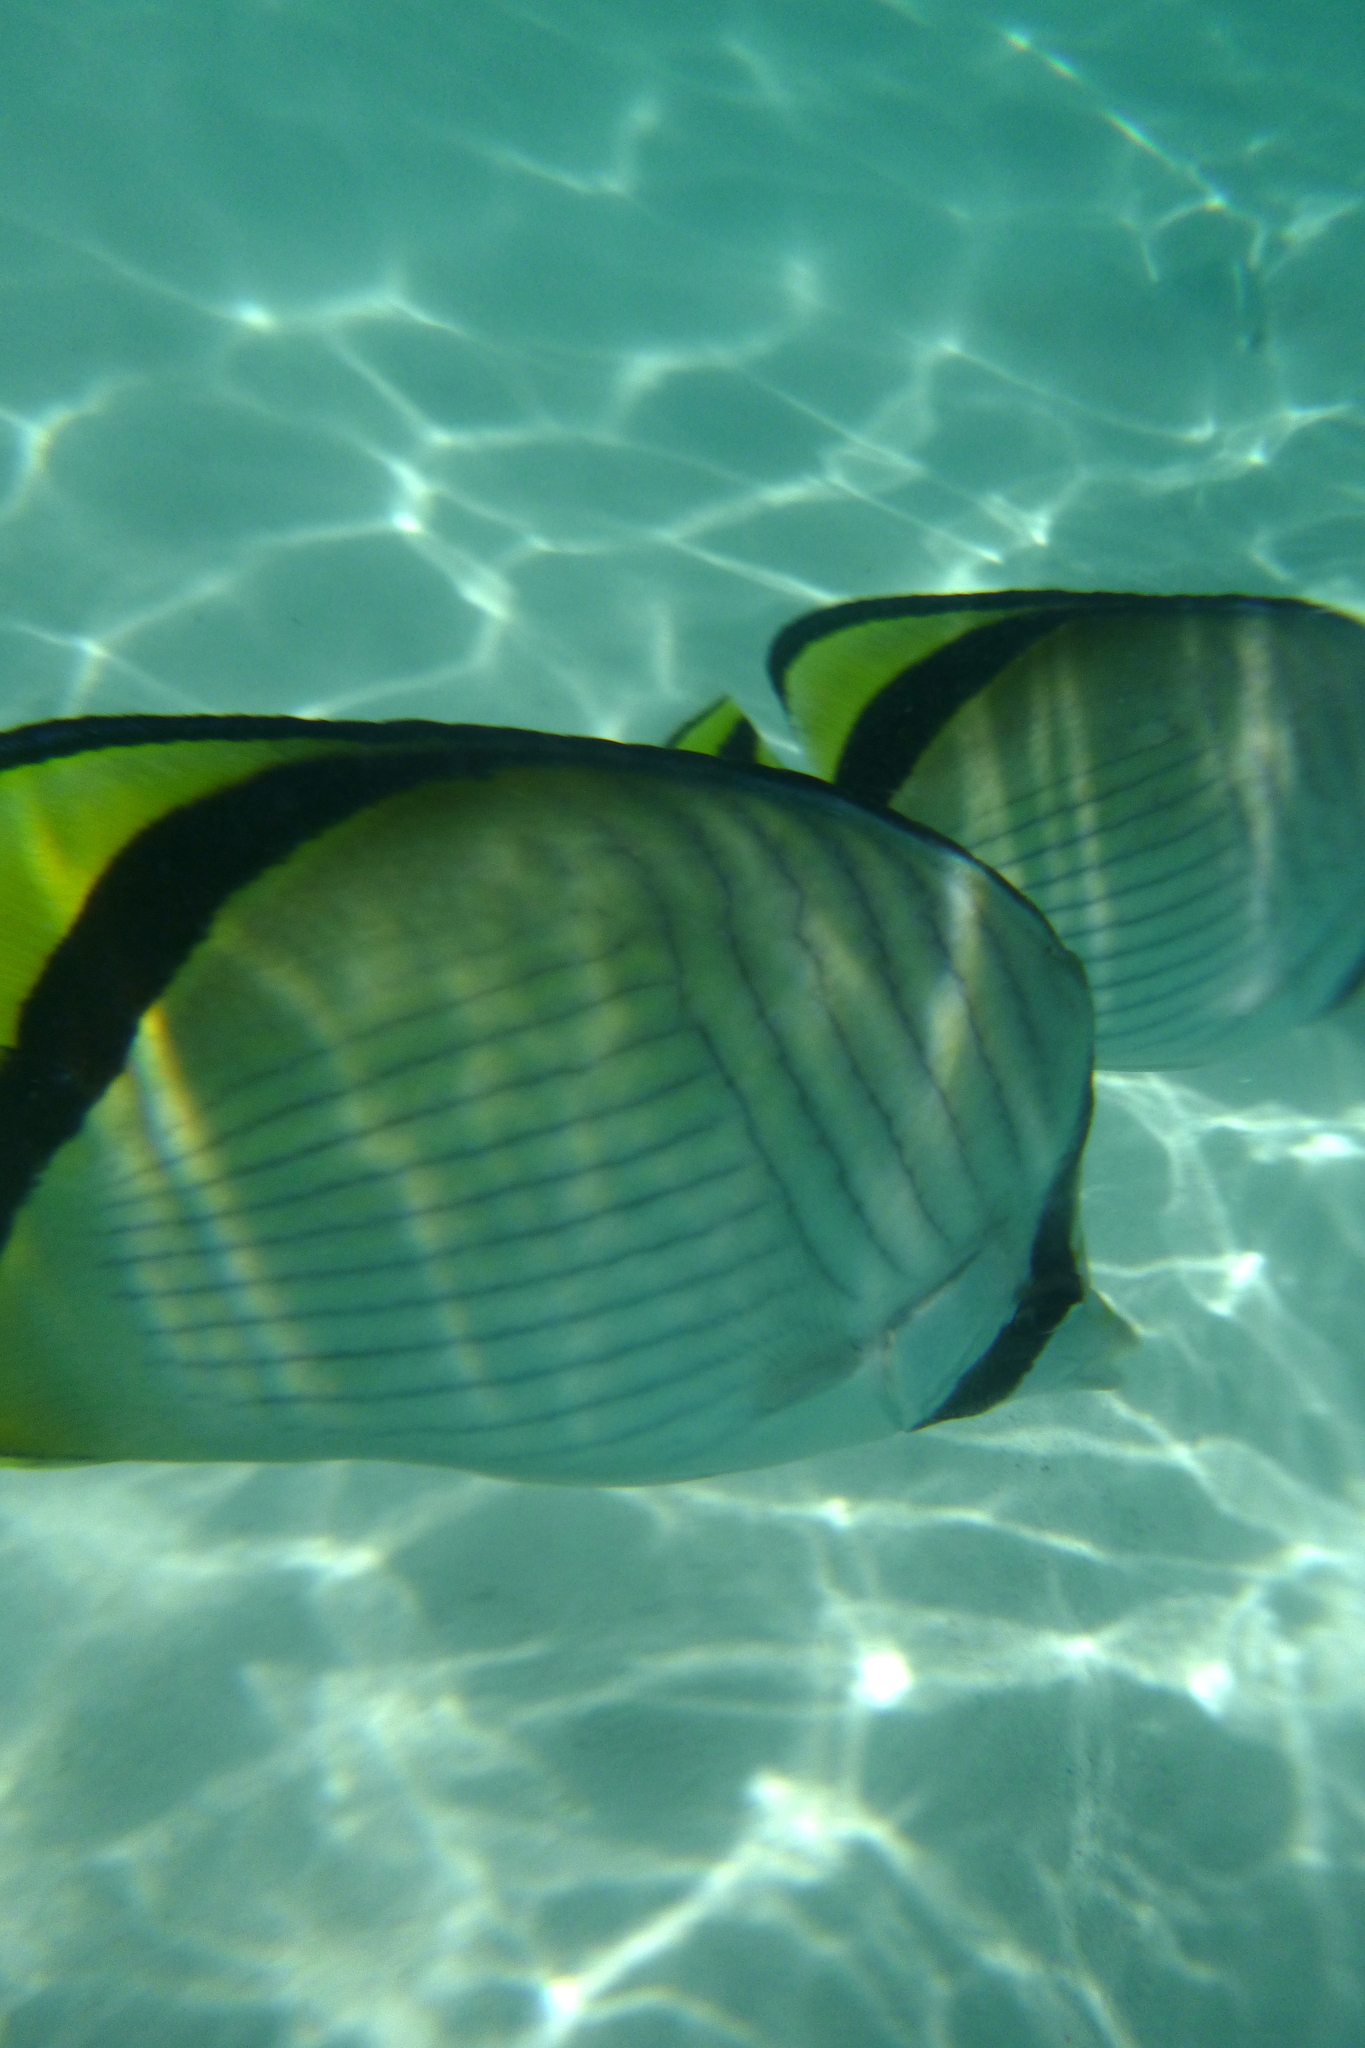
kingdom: Animalia
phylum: Chordata
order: Perciformes
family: Chaetodontidae
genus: Chaetodon
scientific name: Chaetodon vagabundus
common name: Vagabond butterflyfish
